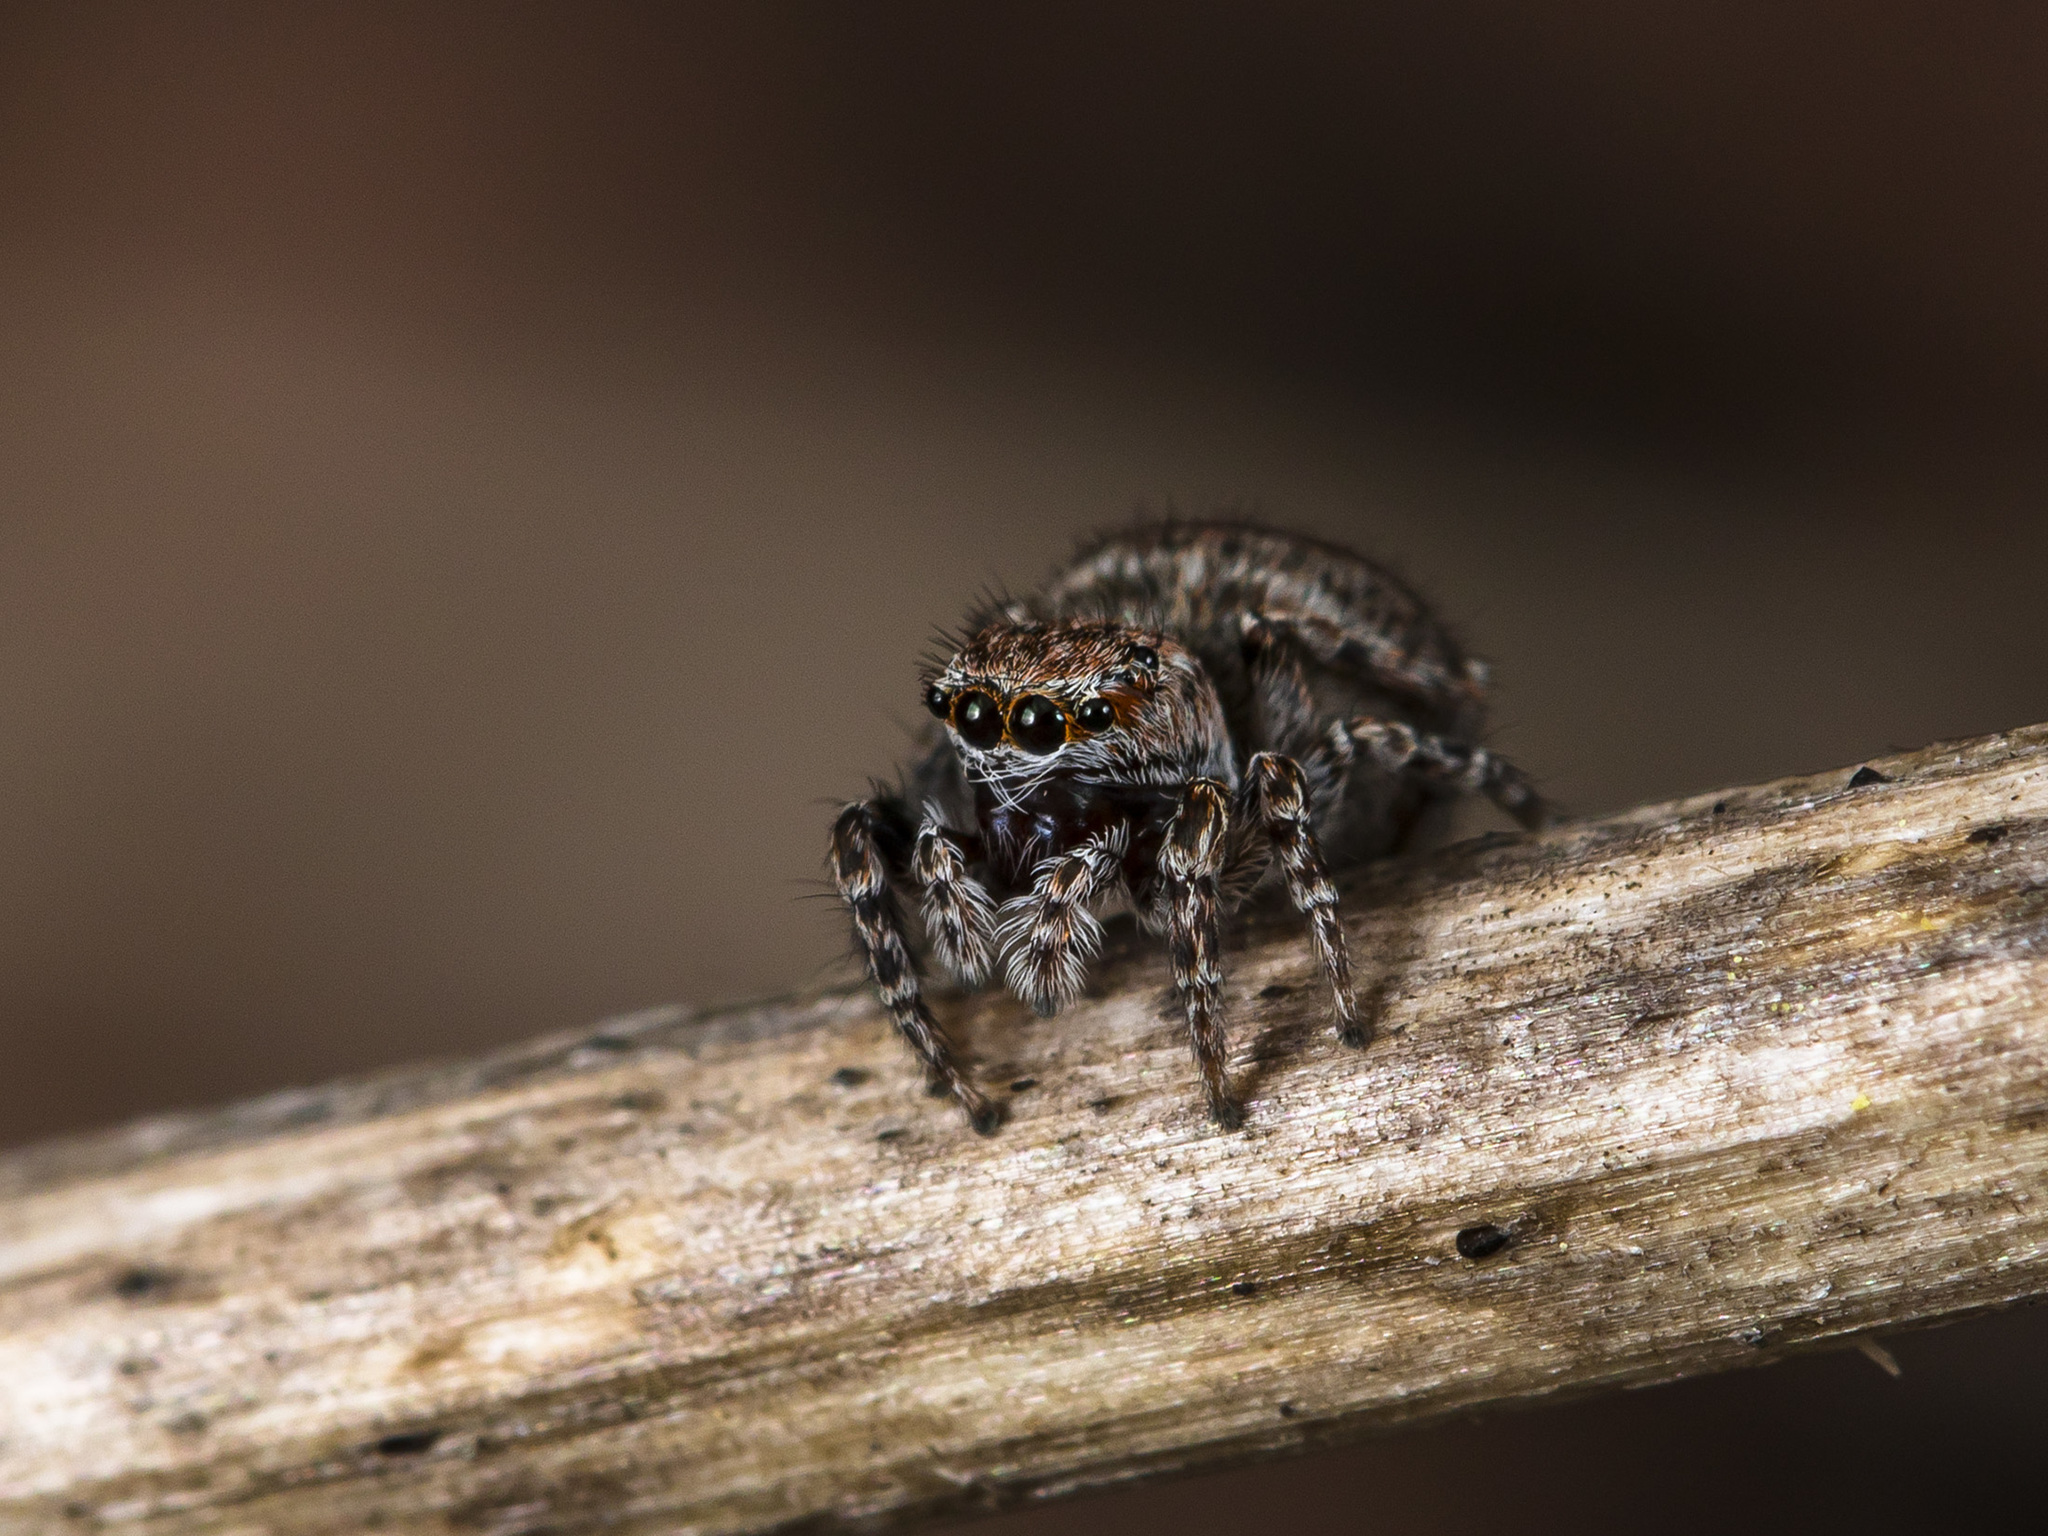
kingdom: Animalia
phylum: Arthropoda
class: Arachnida
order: Araneae
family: Salticidae
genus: Attulus
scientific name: Attulus mirandus
